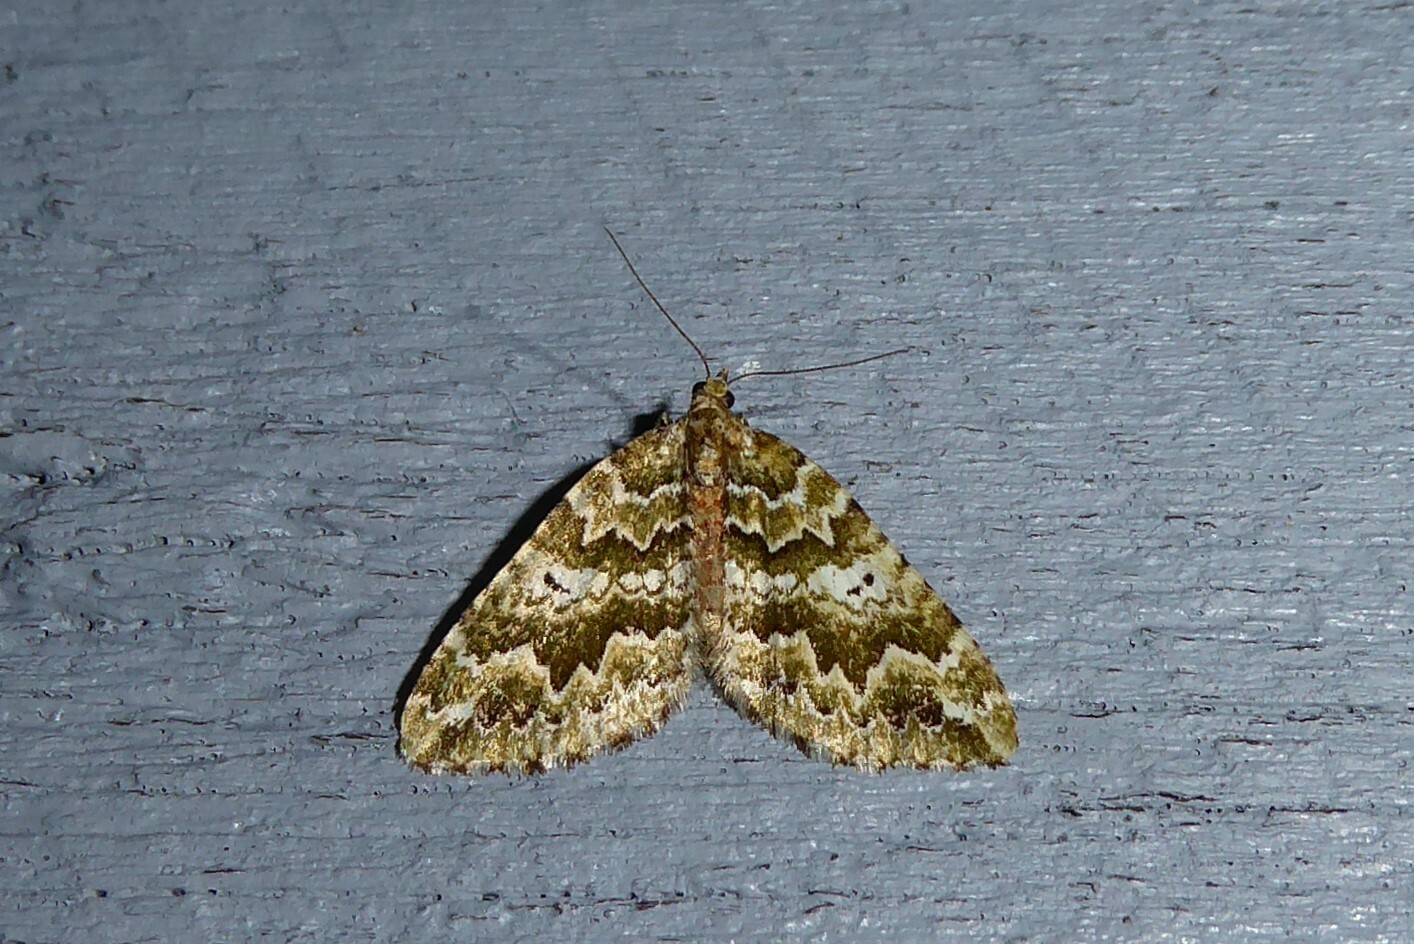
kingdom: Animalia
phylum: Arthropoda
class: Insecta
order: Lepidoptera
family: Geometridae
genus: Asaphodes
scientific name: Asaphodes beata
